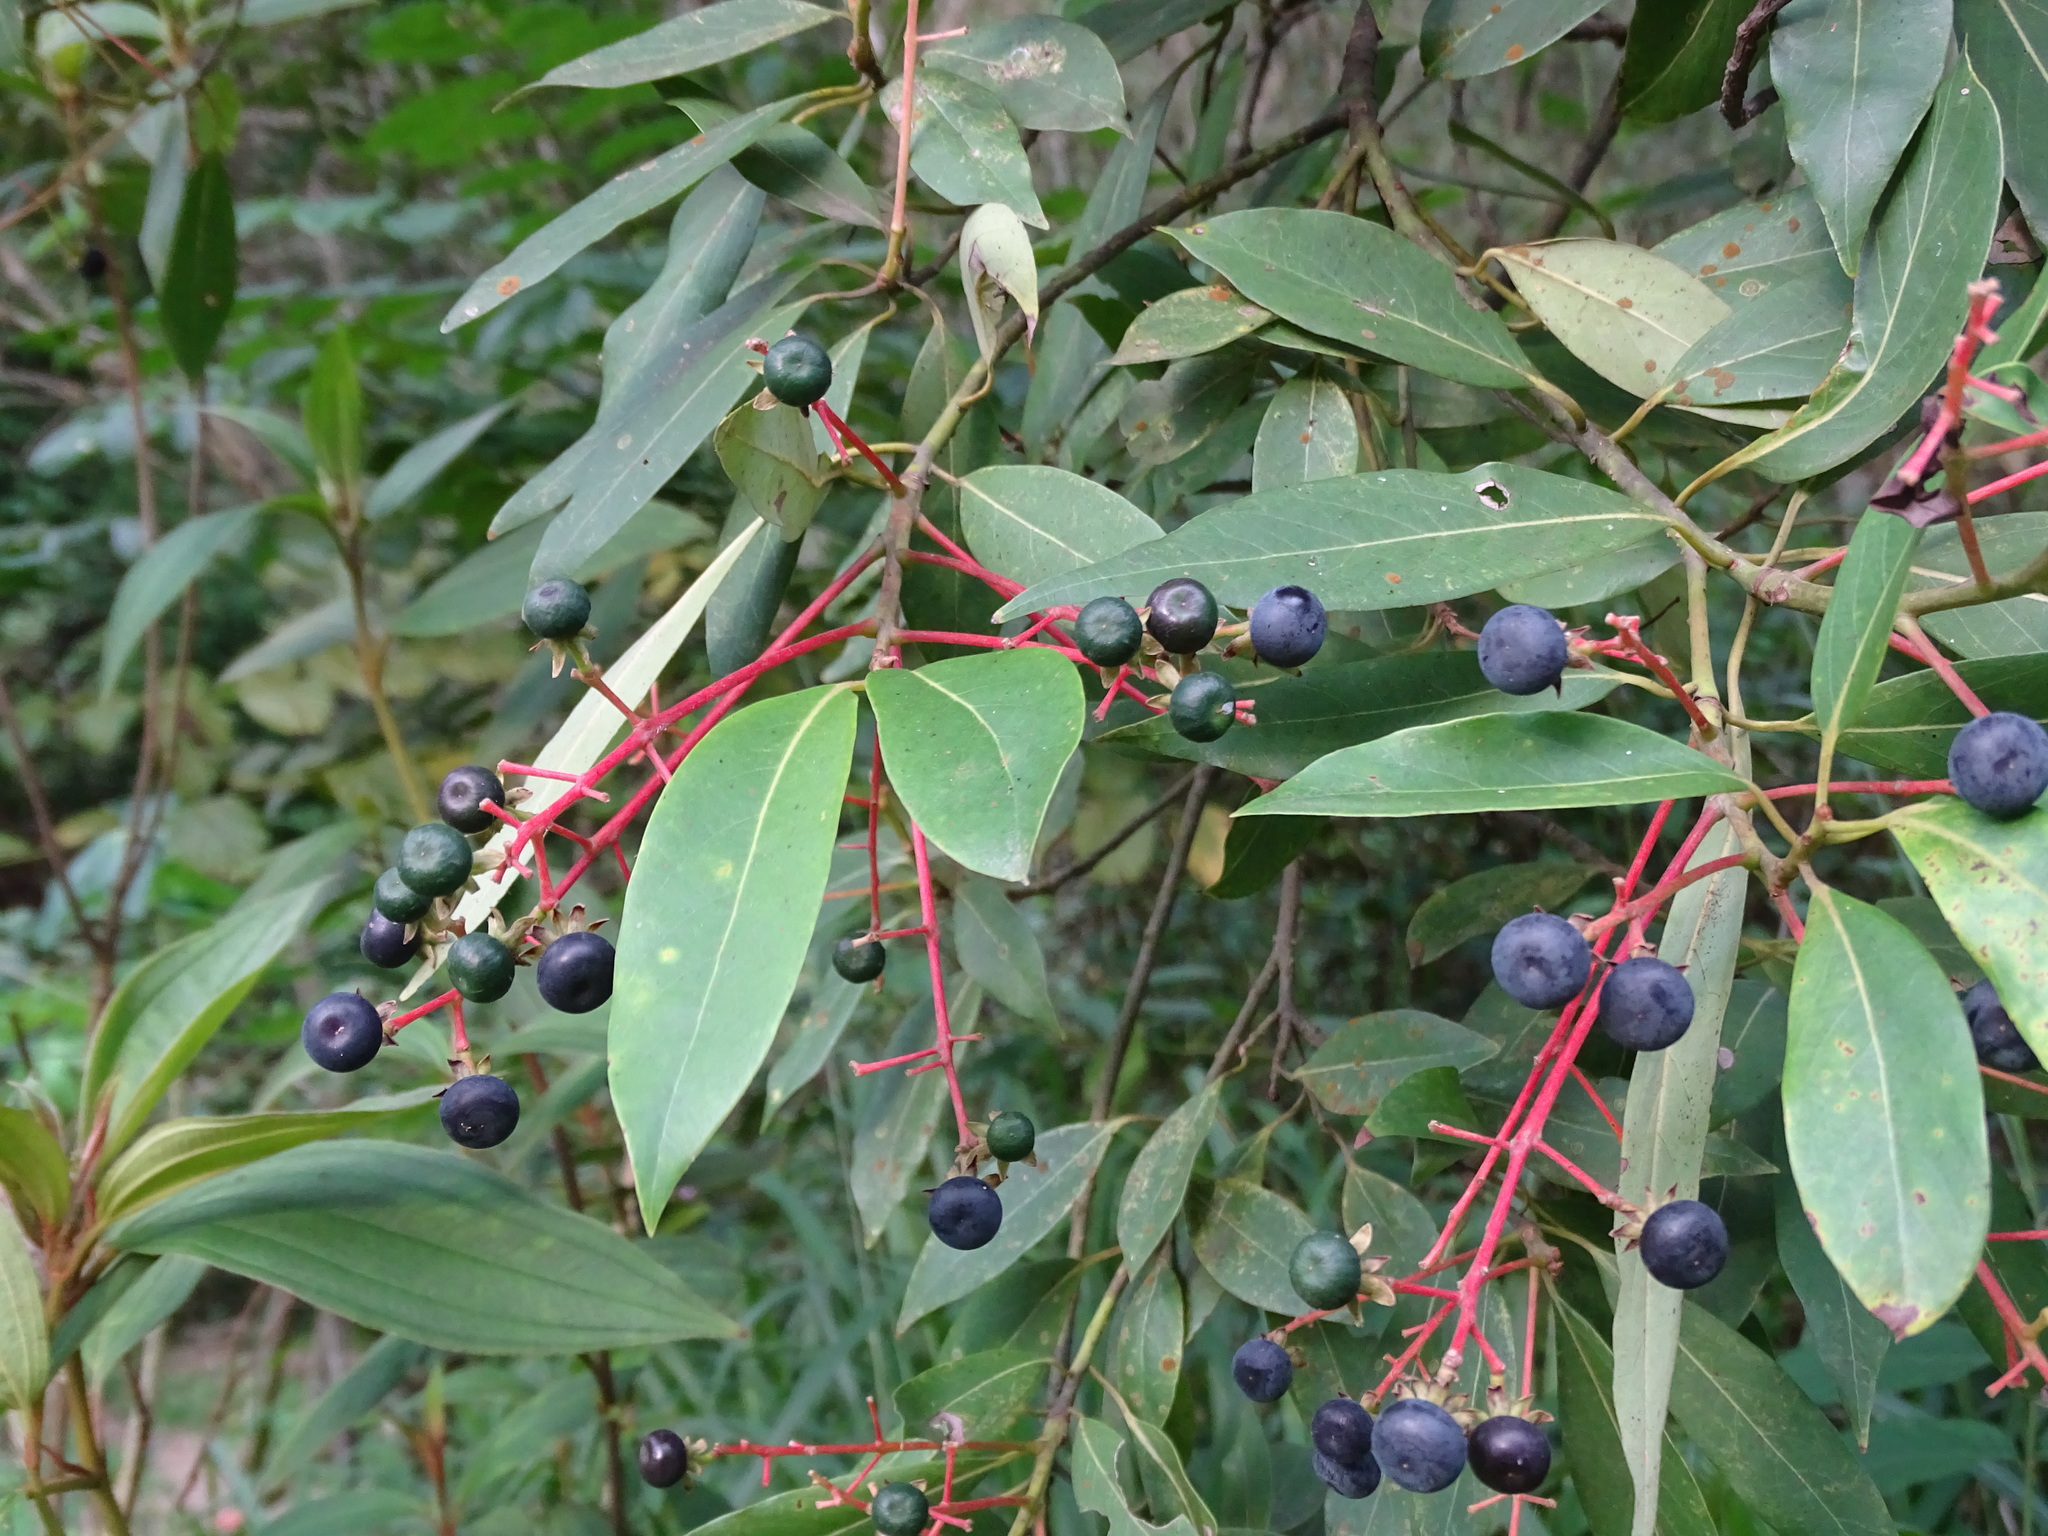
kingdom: Plantae
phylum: Tracheophyta
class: Magnoliopsida
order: Laurales
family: Lauraceae
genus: Machilus
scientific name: Machilus zuihoensis
